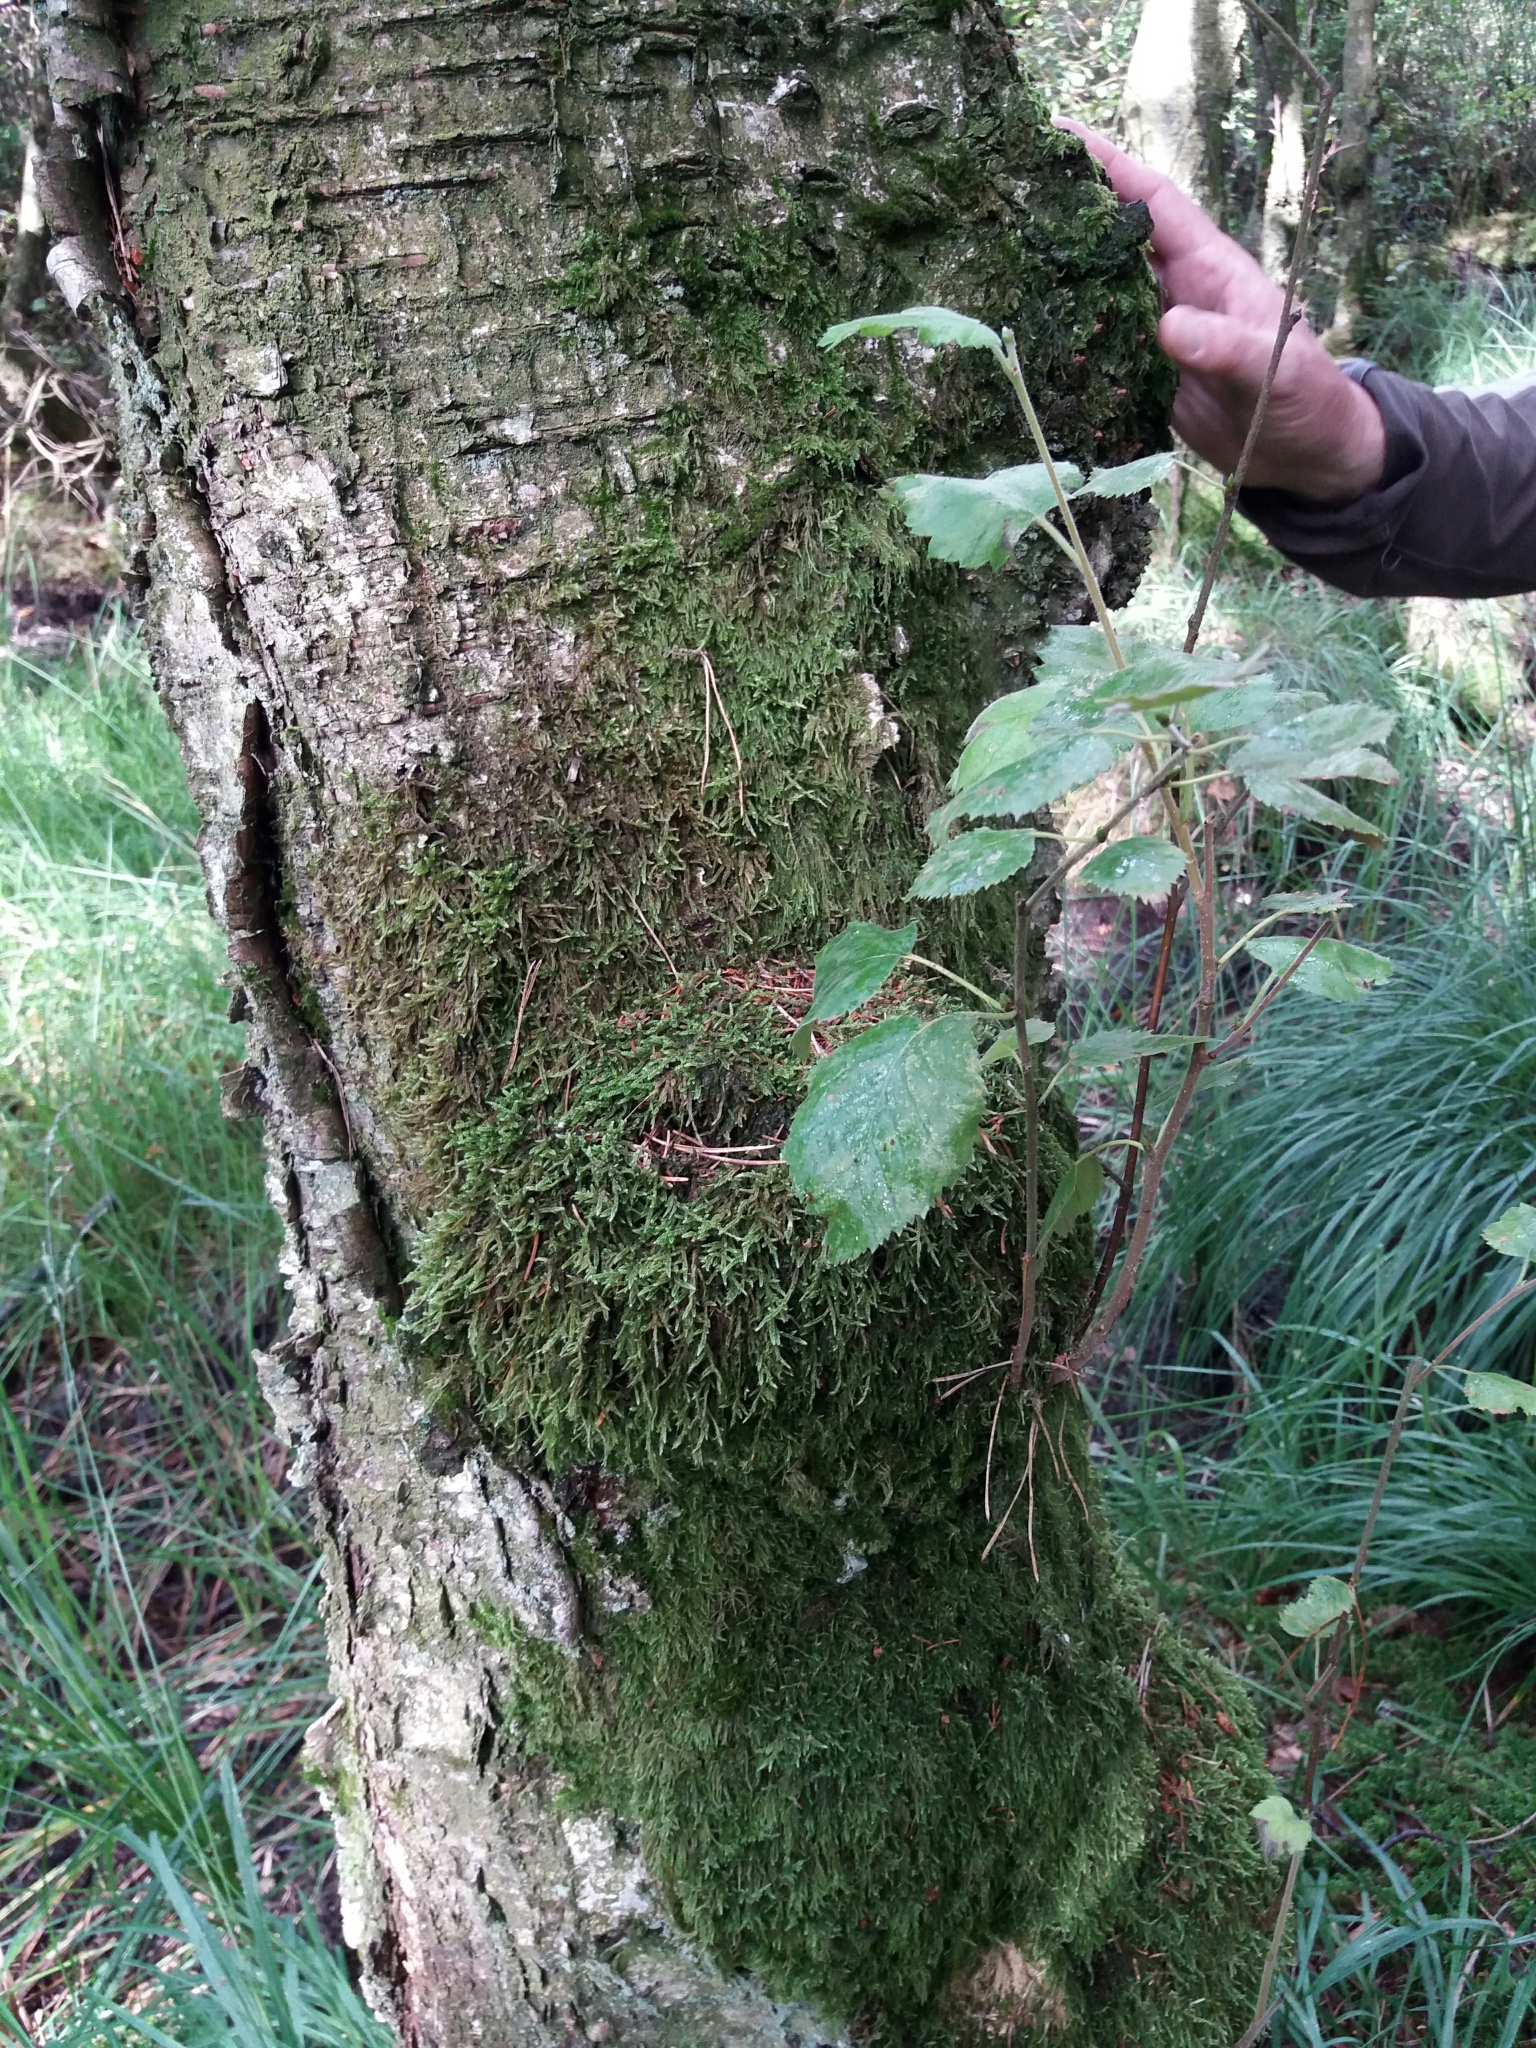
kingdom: Plantae
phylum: Tracheophyta
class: Magnoliopsida
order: Fagales
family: Betulaceae
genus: Betula
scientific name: Betula pubescens
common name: Downy birch
